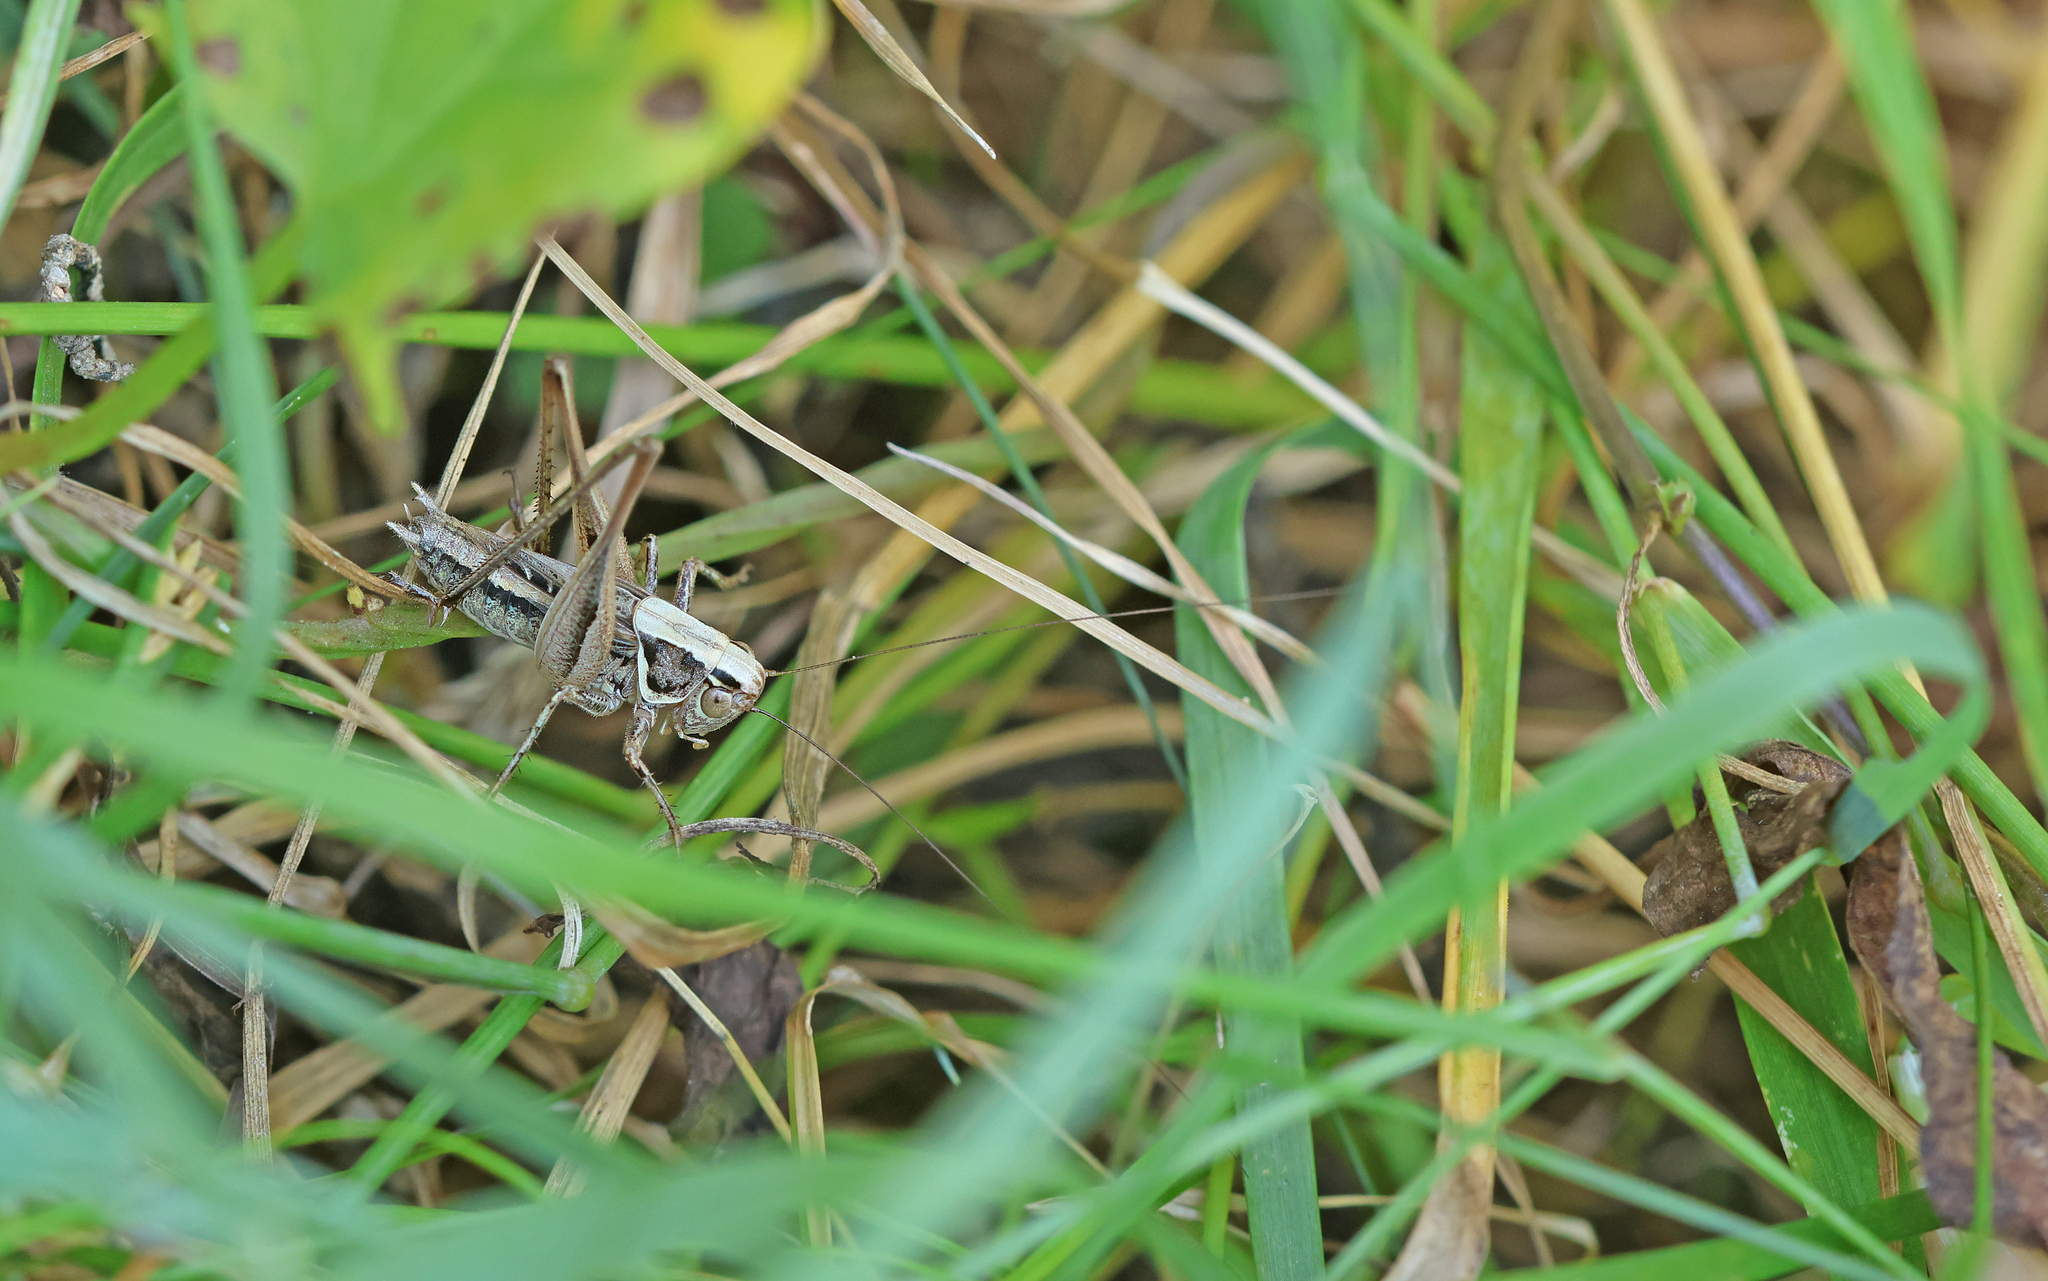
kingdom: Animalia
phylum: Arthropoda
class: Insecta
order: Orthoptera
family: Tettigoniidae
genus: Tessellana
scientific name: Tessellana veyseli
